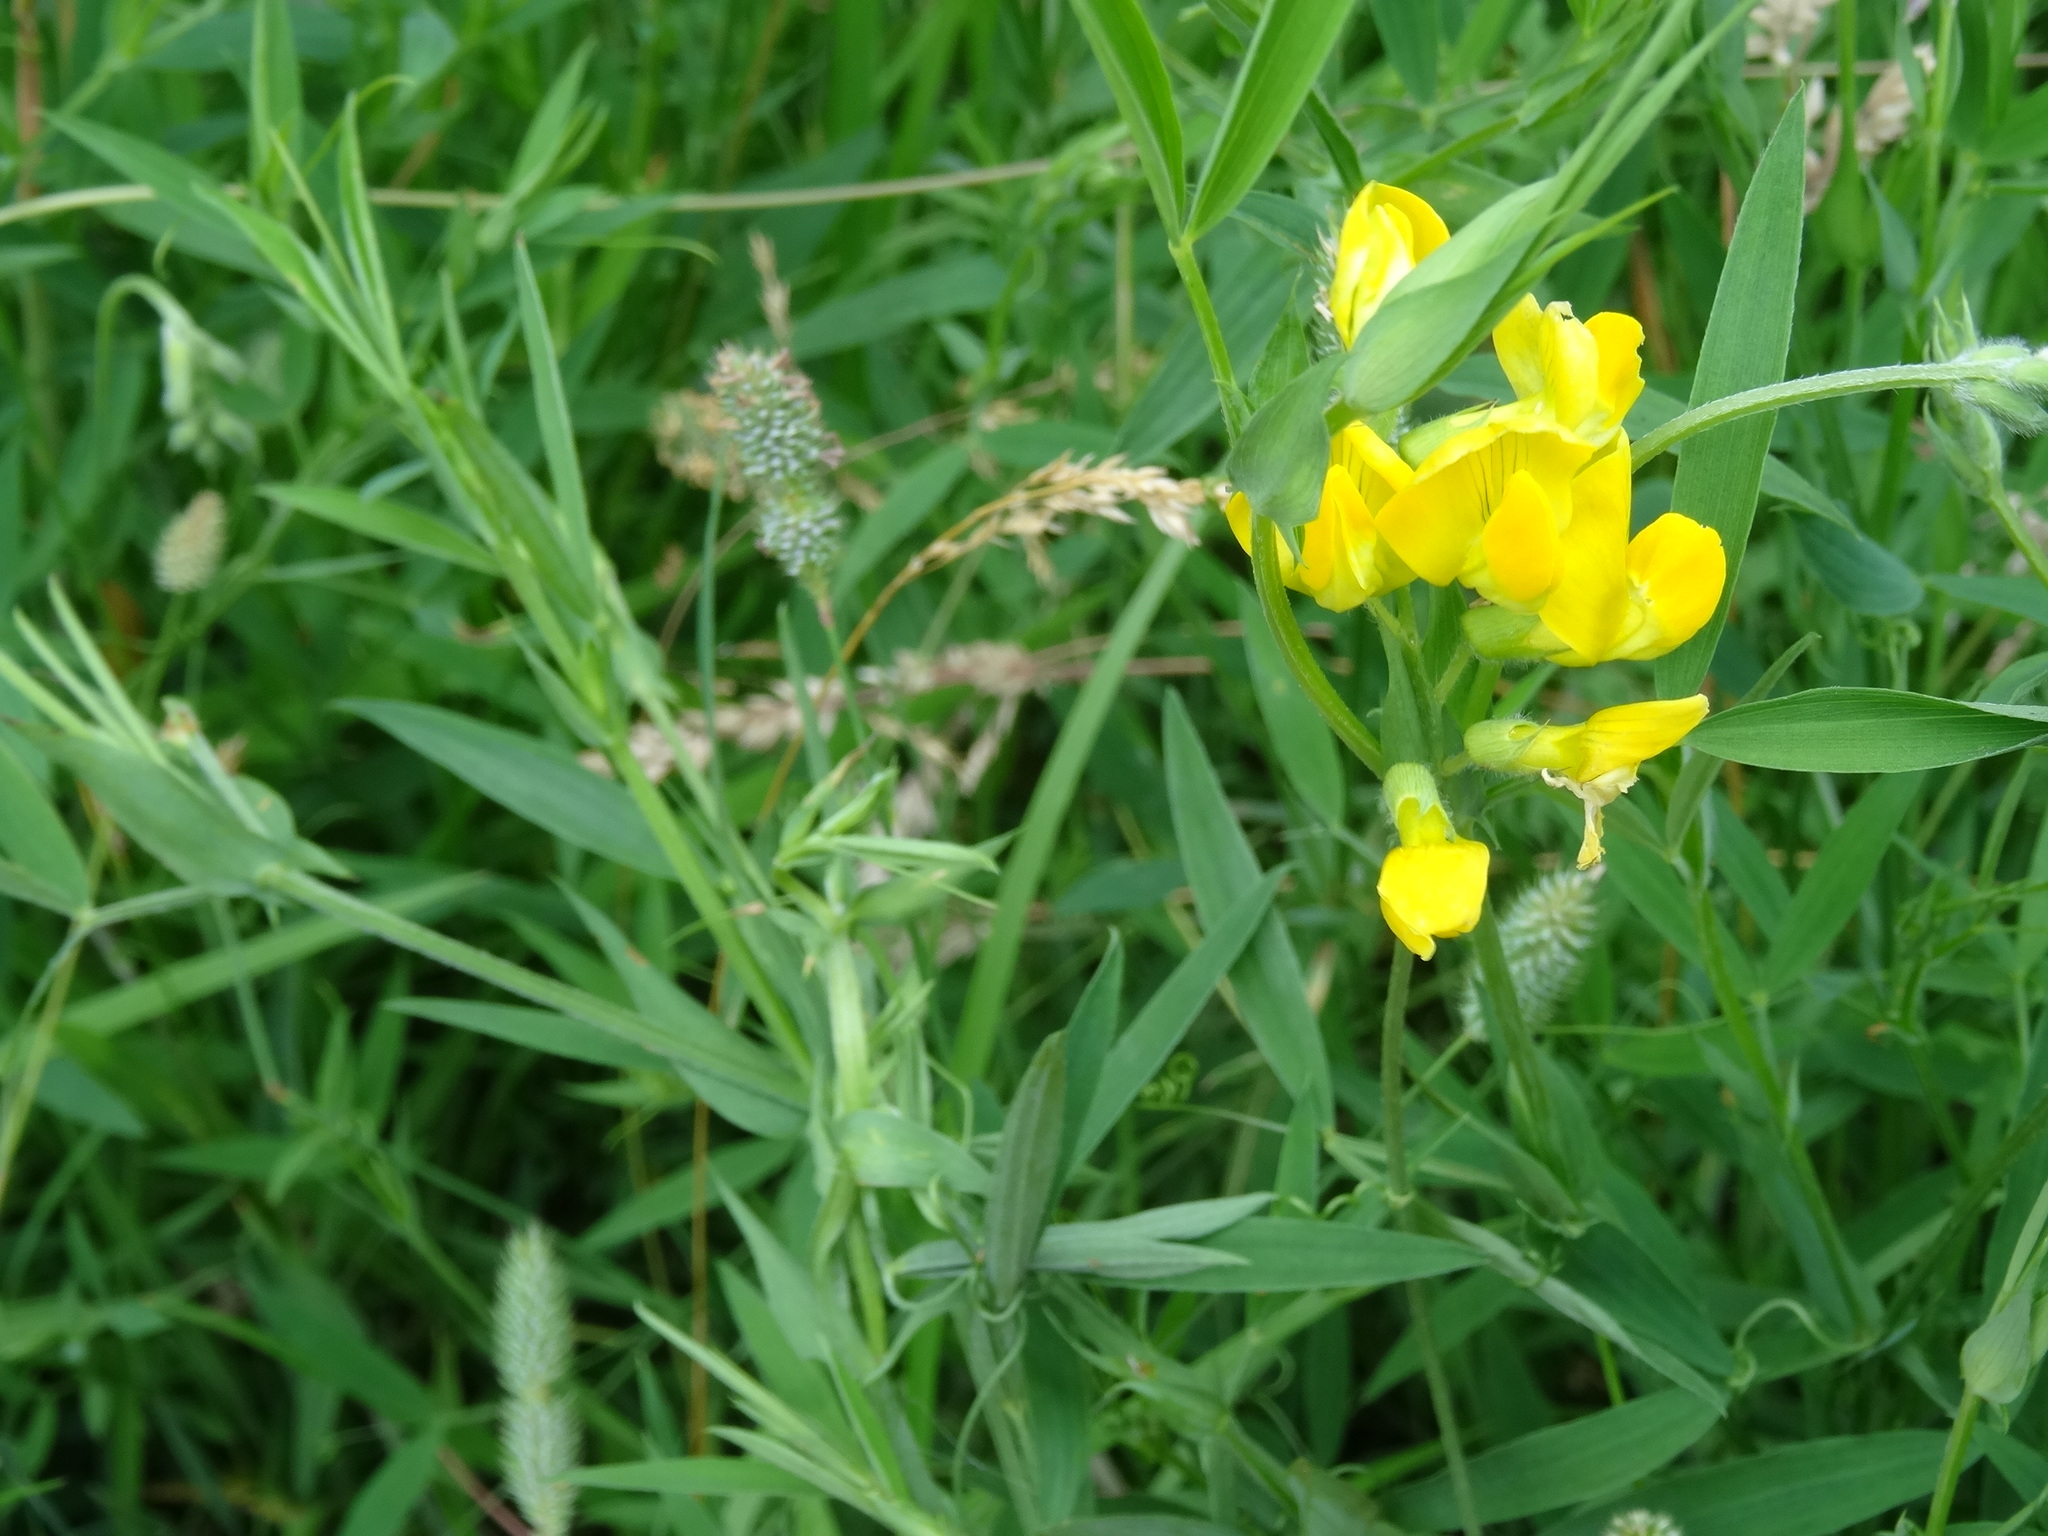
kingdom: Plantae
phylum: Tracheophyta
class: Magnoliopsida
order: Fabales
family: Fabaceae
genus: Lathyrus
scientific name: Lathyrus pratensis
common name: Meadow vetchling
